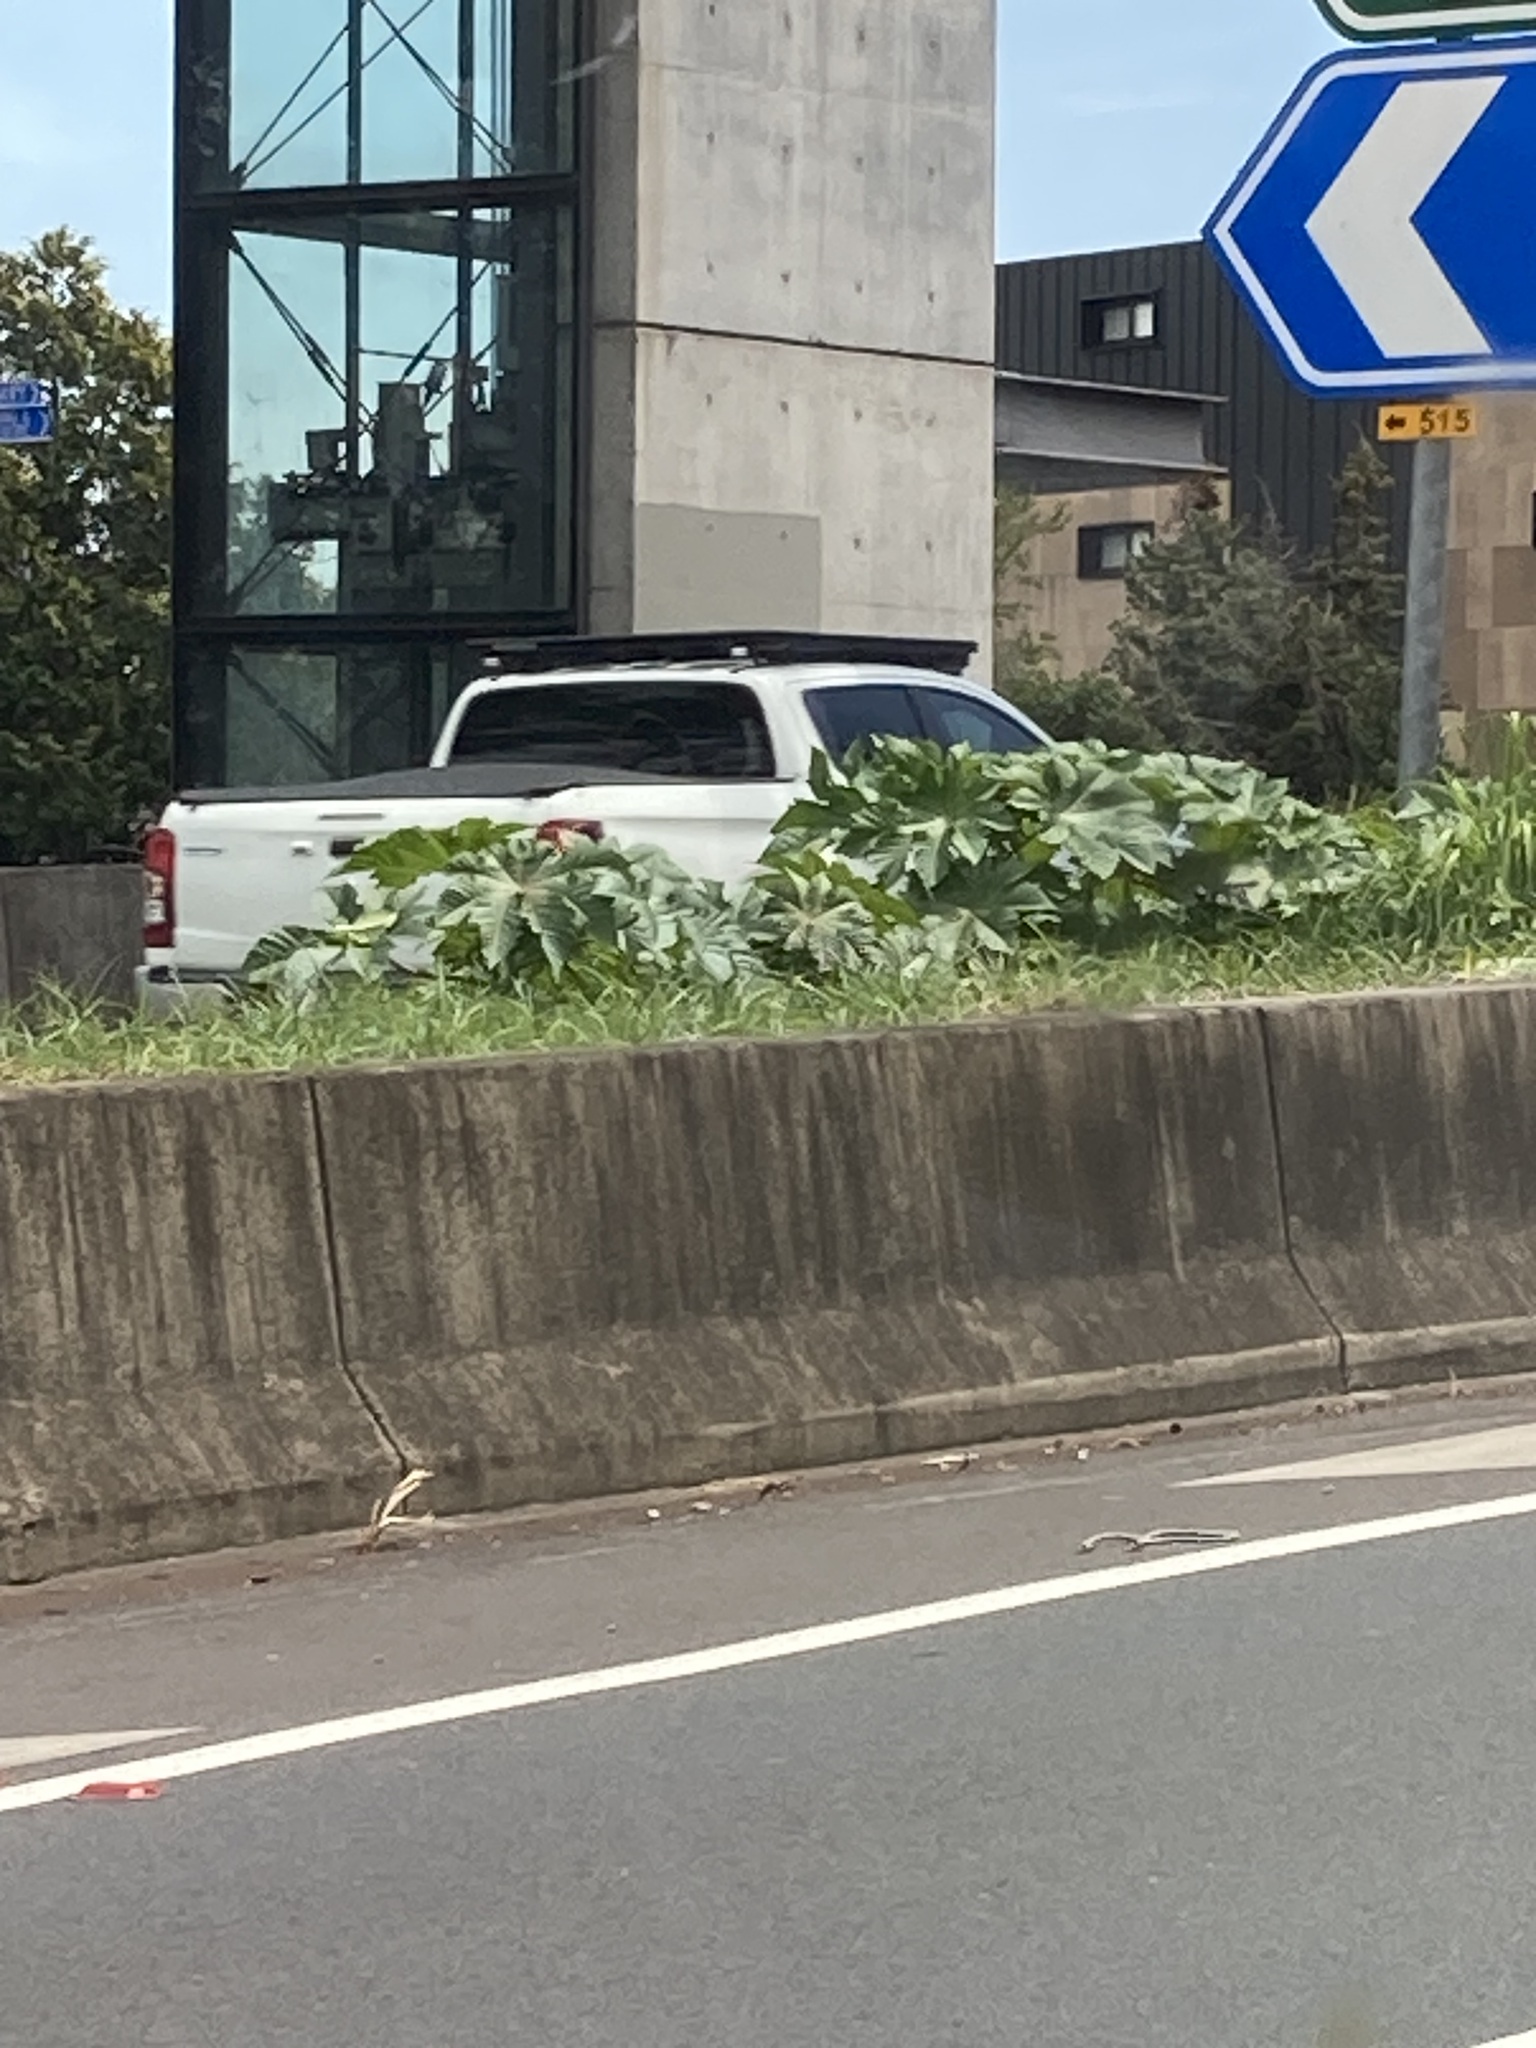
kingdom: Plantae
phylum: Tracheophyta
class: Magnoliopsida
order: Malpighiales
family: Euphorbiaceae
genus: Ricinus
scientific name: Ricinus communis
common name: Castor-oil-plant
